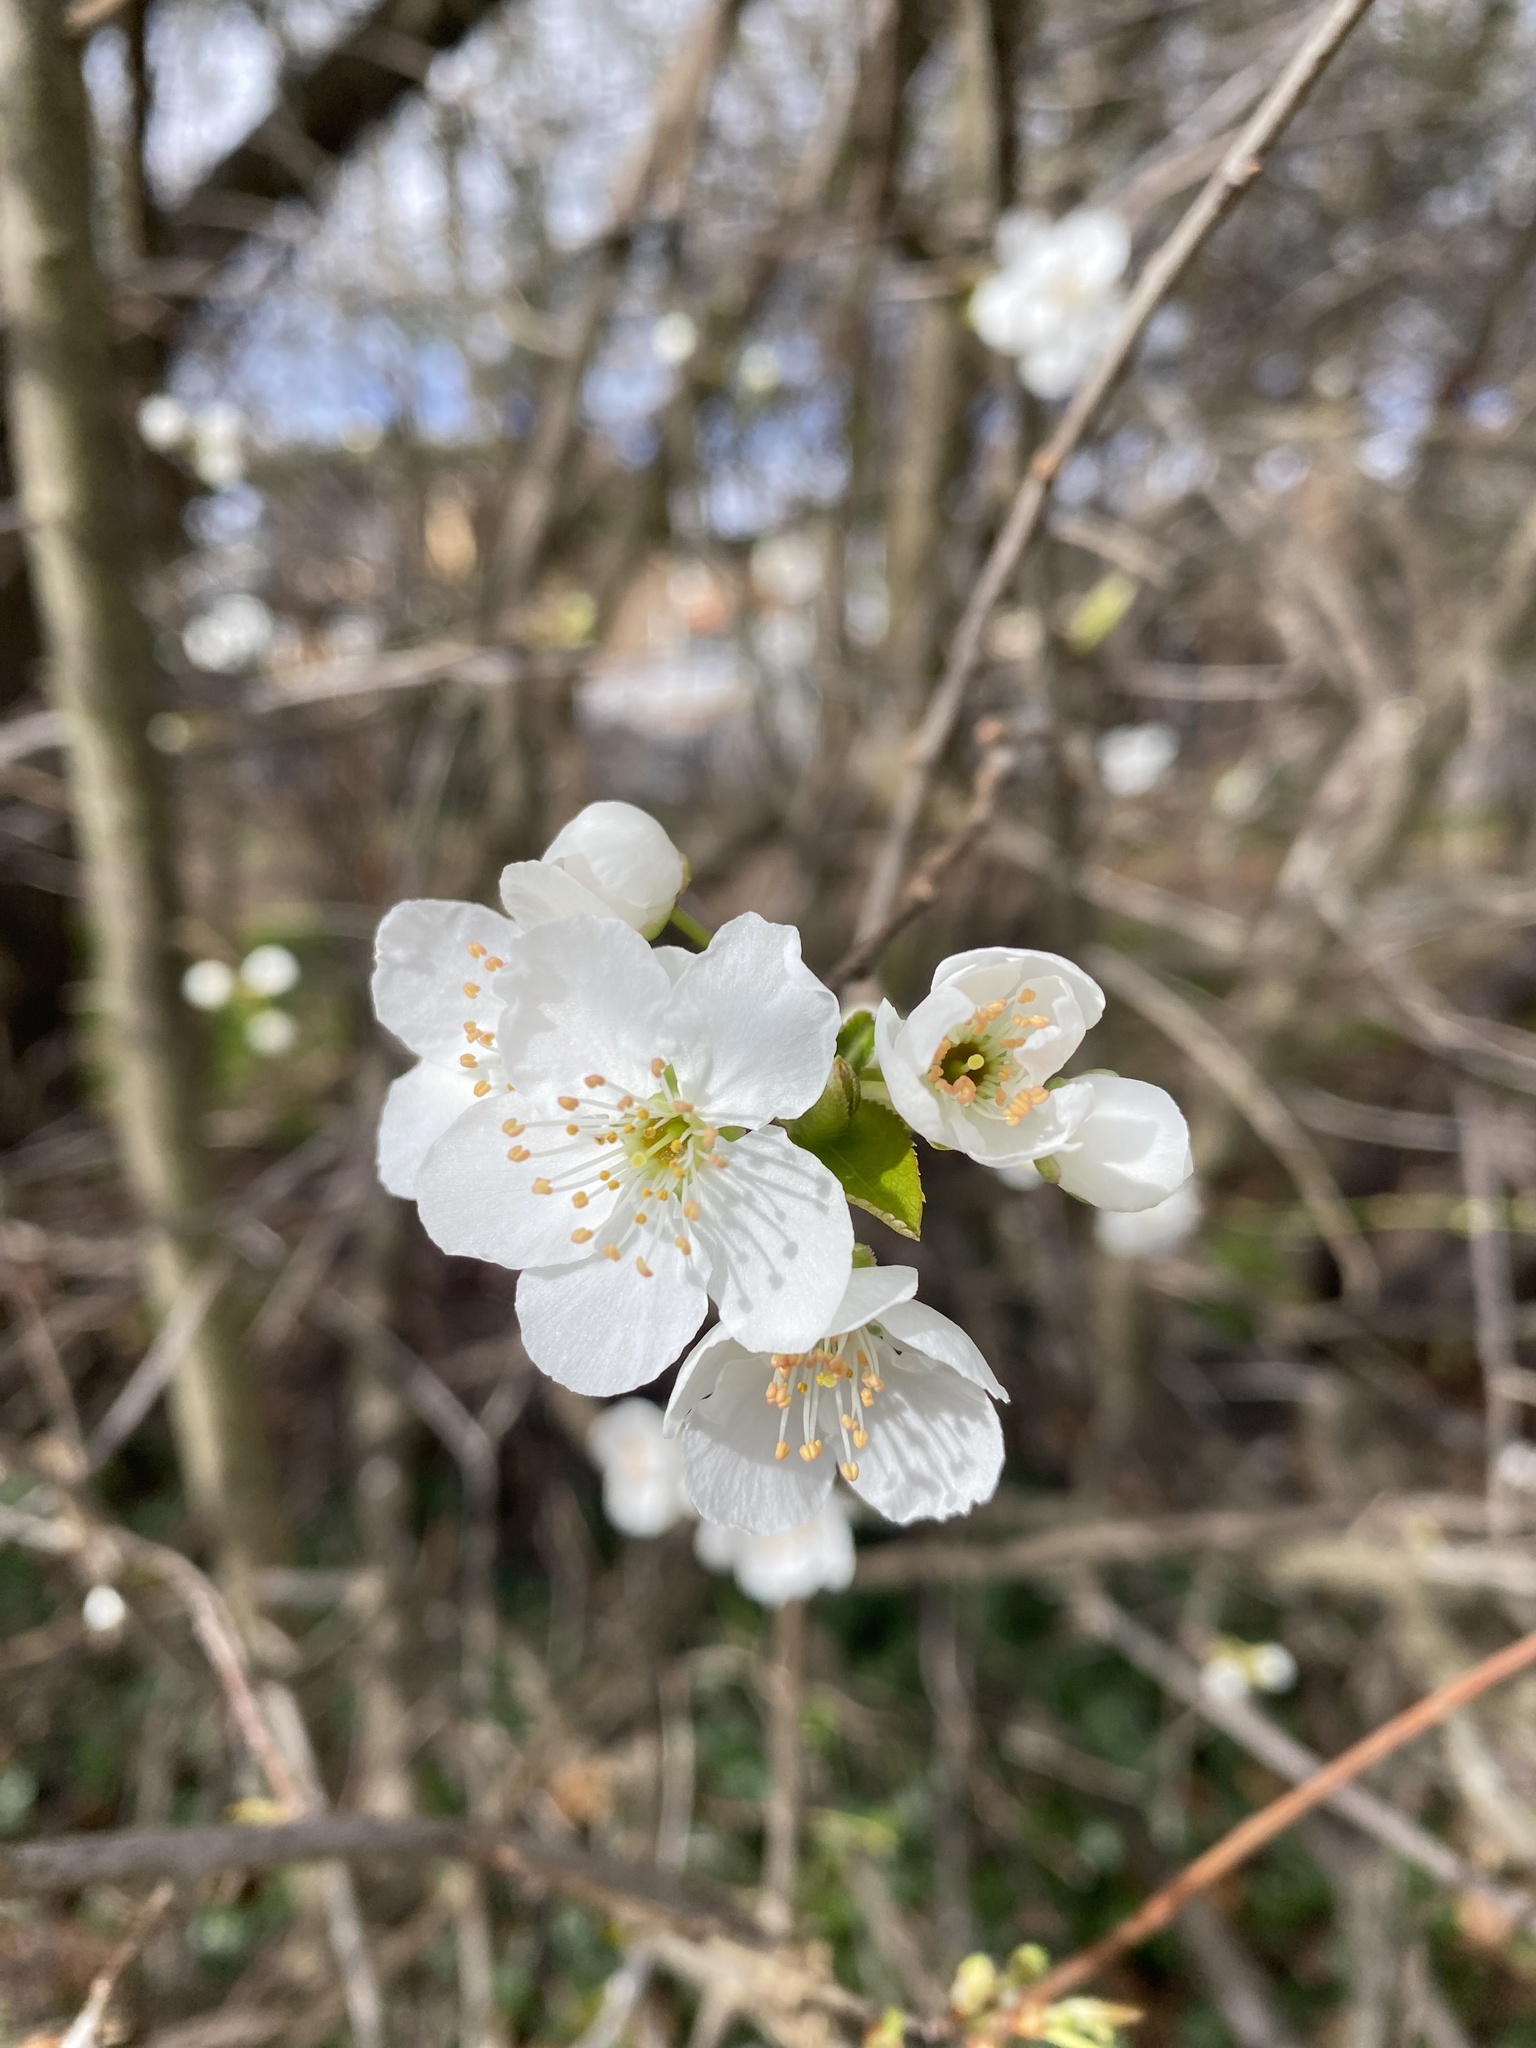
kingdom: Plantae
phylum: Tracheophyta
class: Magnoliopsida
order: Rosales
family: Rosaceae
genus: Prunus
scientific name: Prunus cerasifera
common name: Cherry plum
